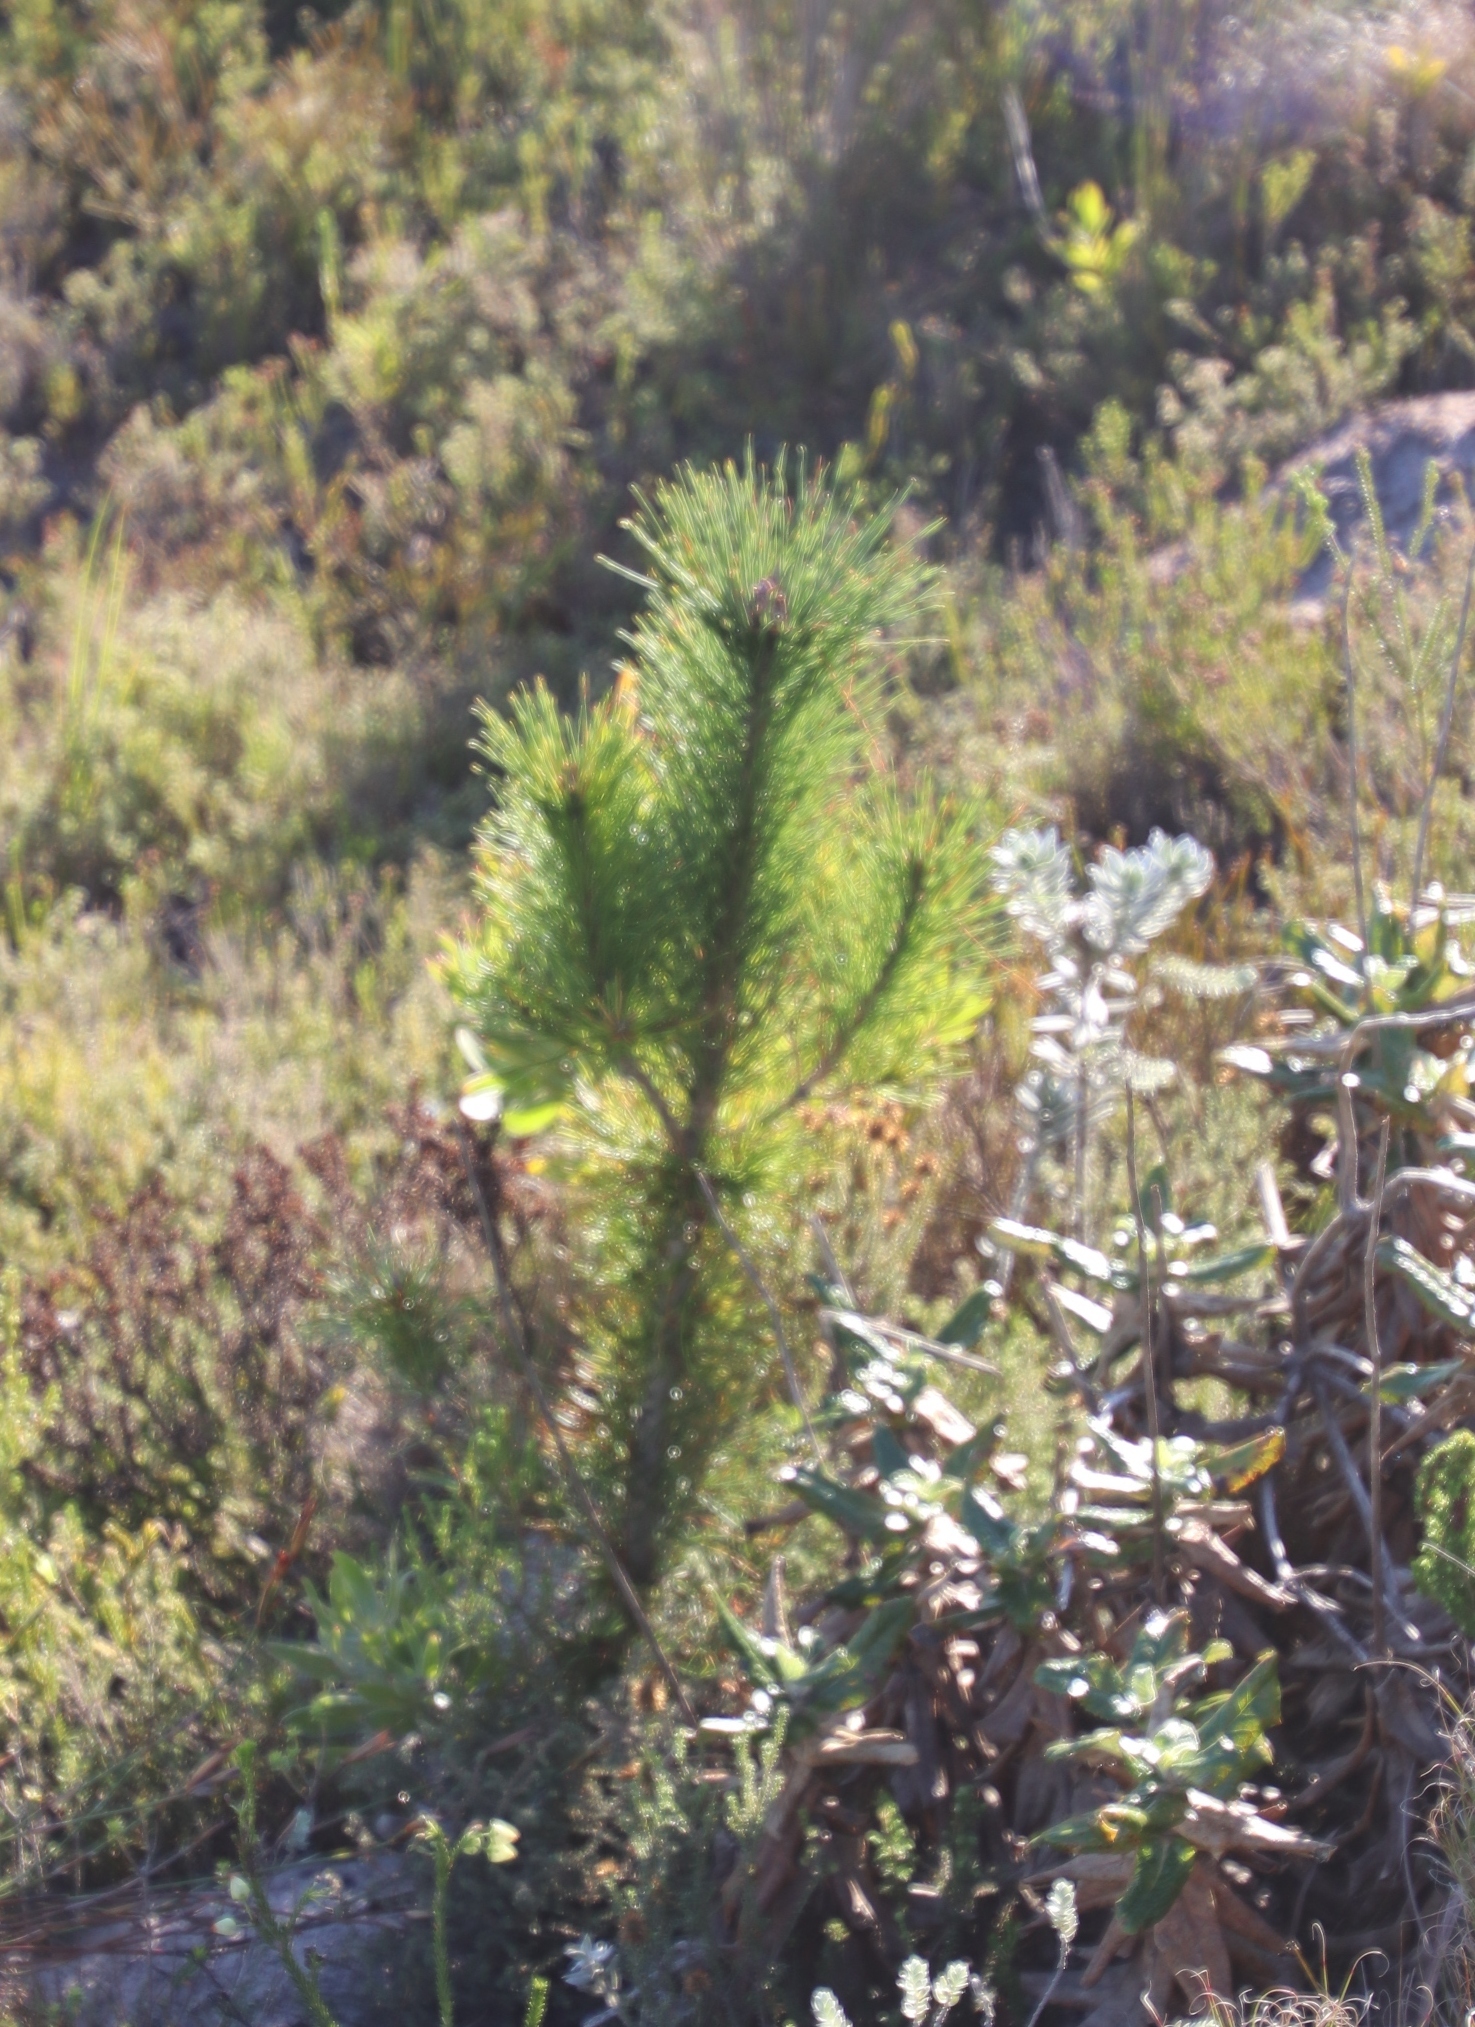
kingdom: Plantae
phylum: Tracheophyta
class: Pinopsida
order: Pinales
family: Pinaceae
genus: Pinus
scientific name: Pinus radiata
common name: Monterey pine
